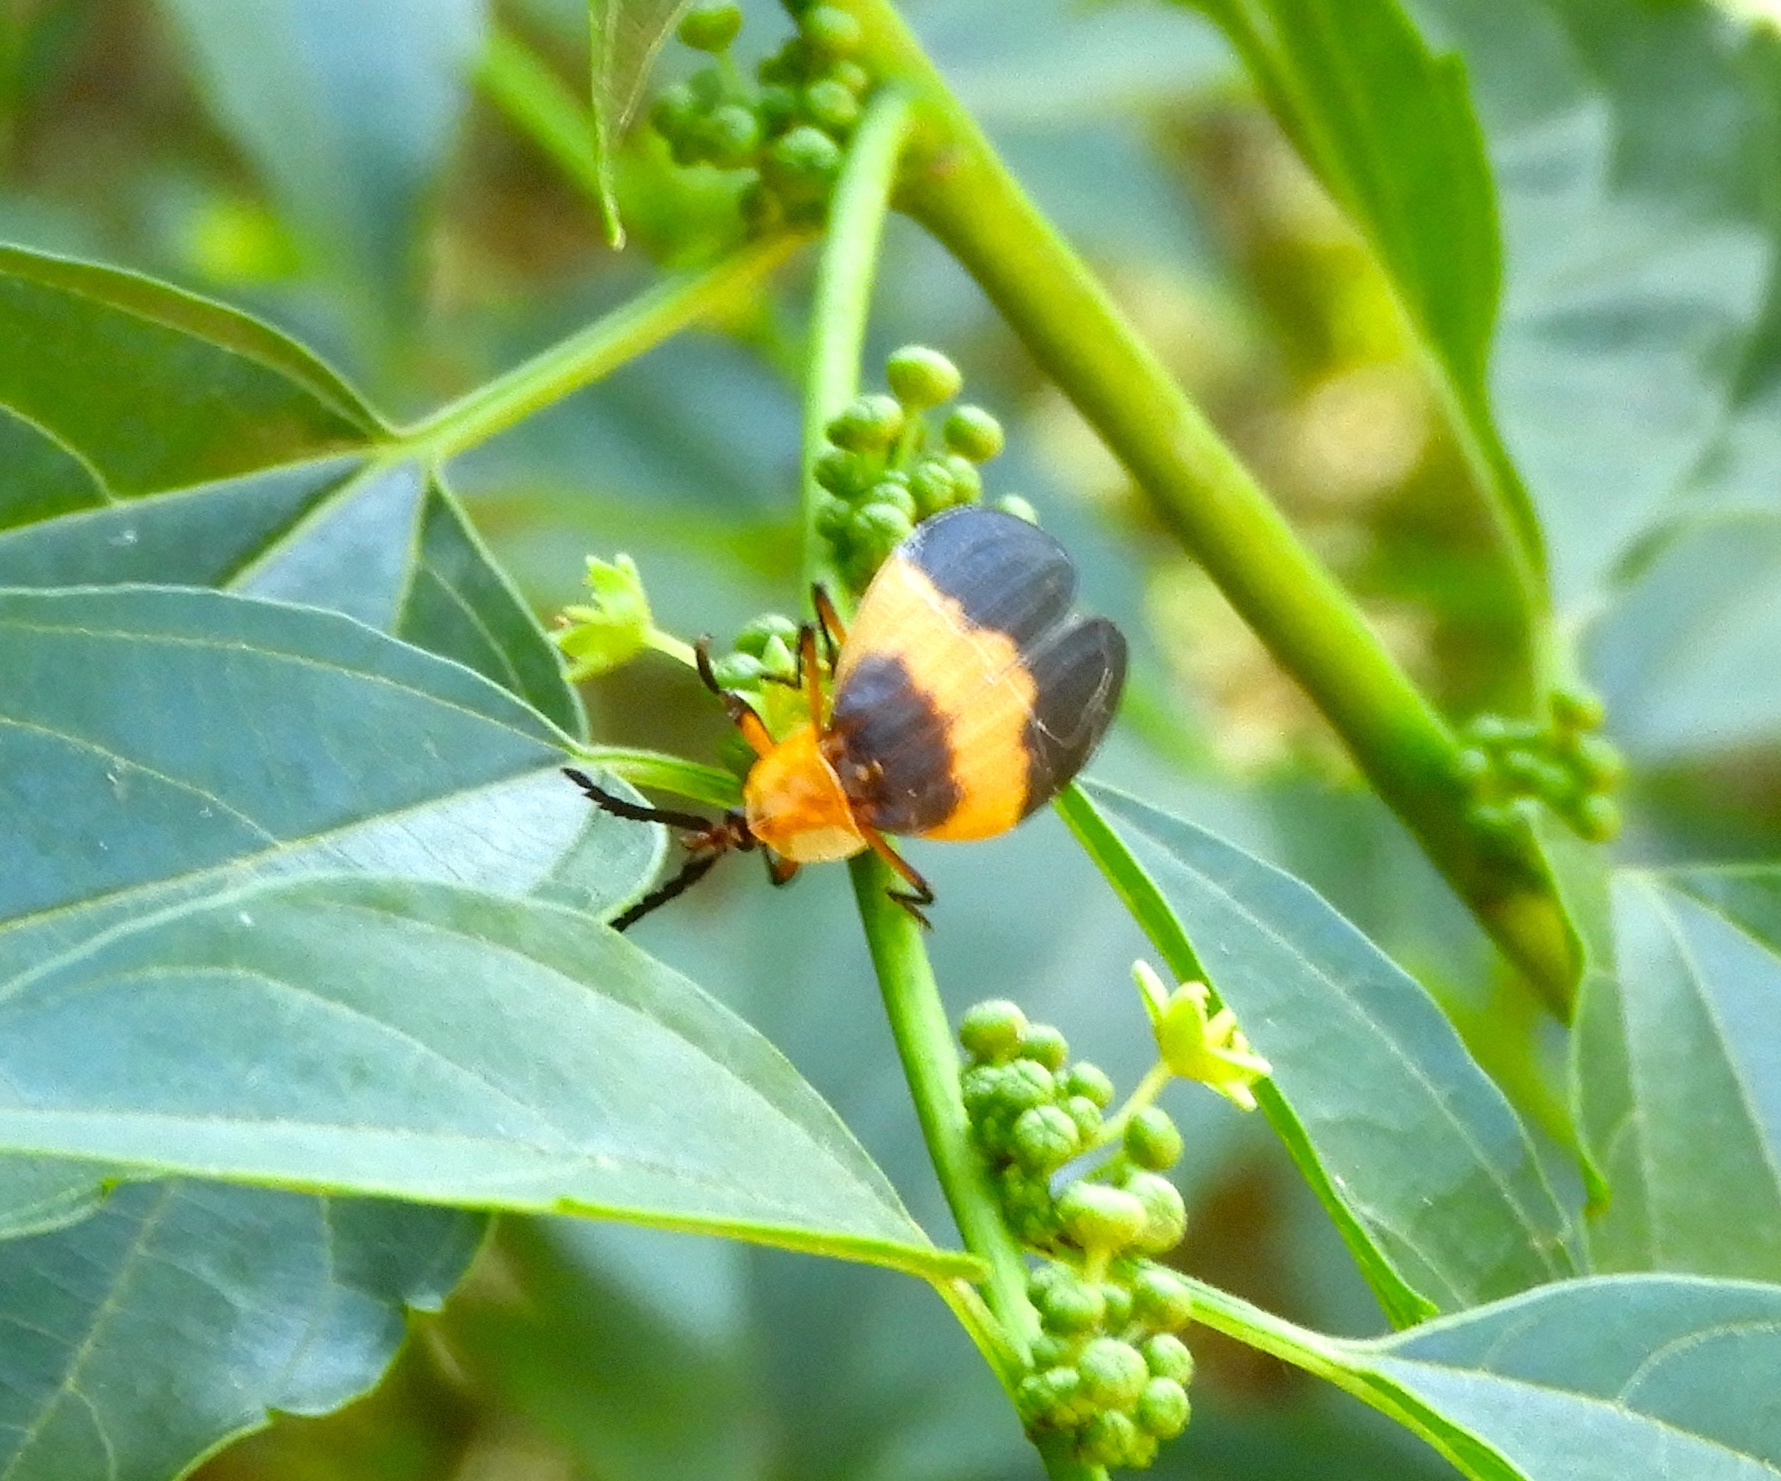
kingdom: Animalia
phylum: Arthropoda
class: Insecta
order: Coleoptera
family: Lycidae
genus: Lycus
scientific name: Lycus
